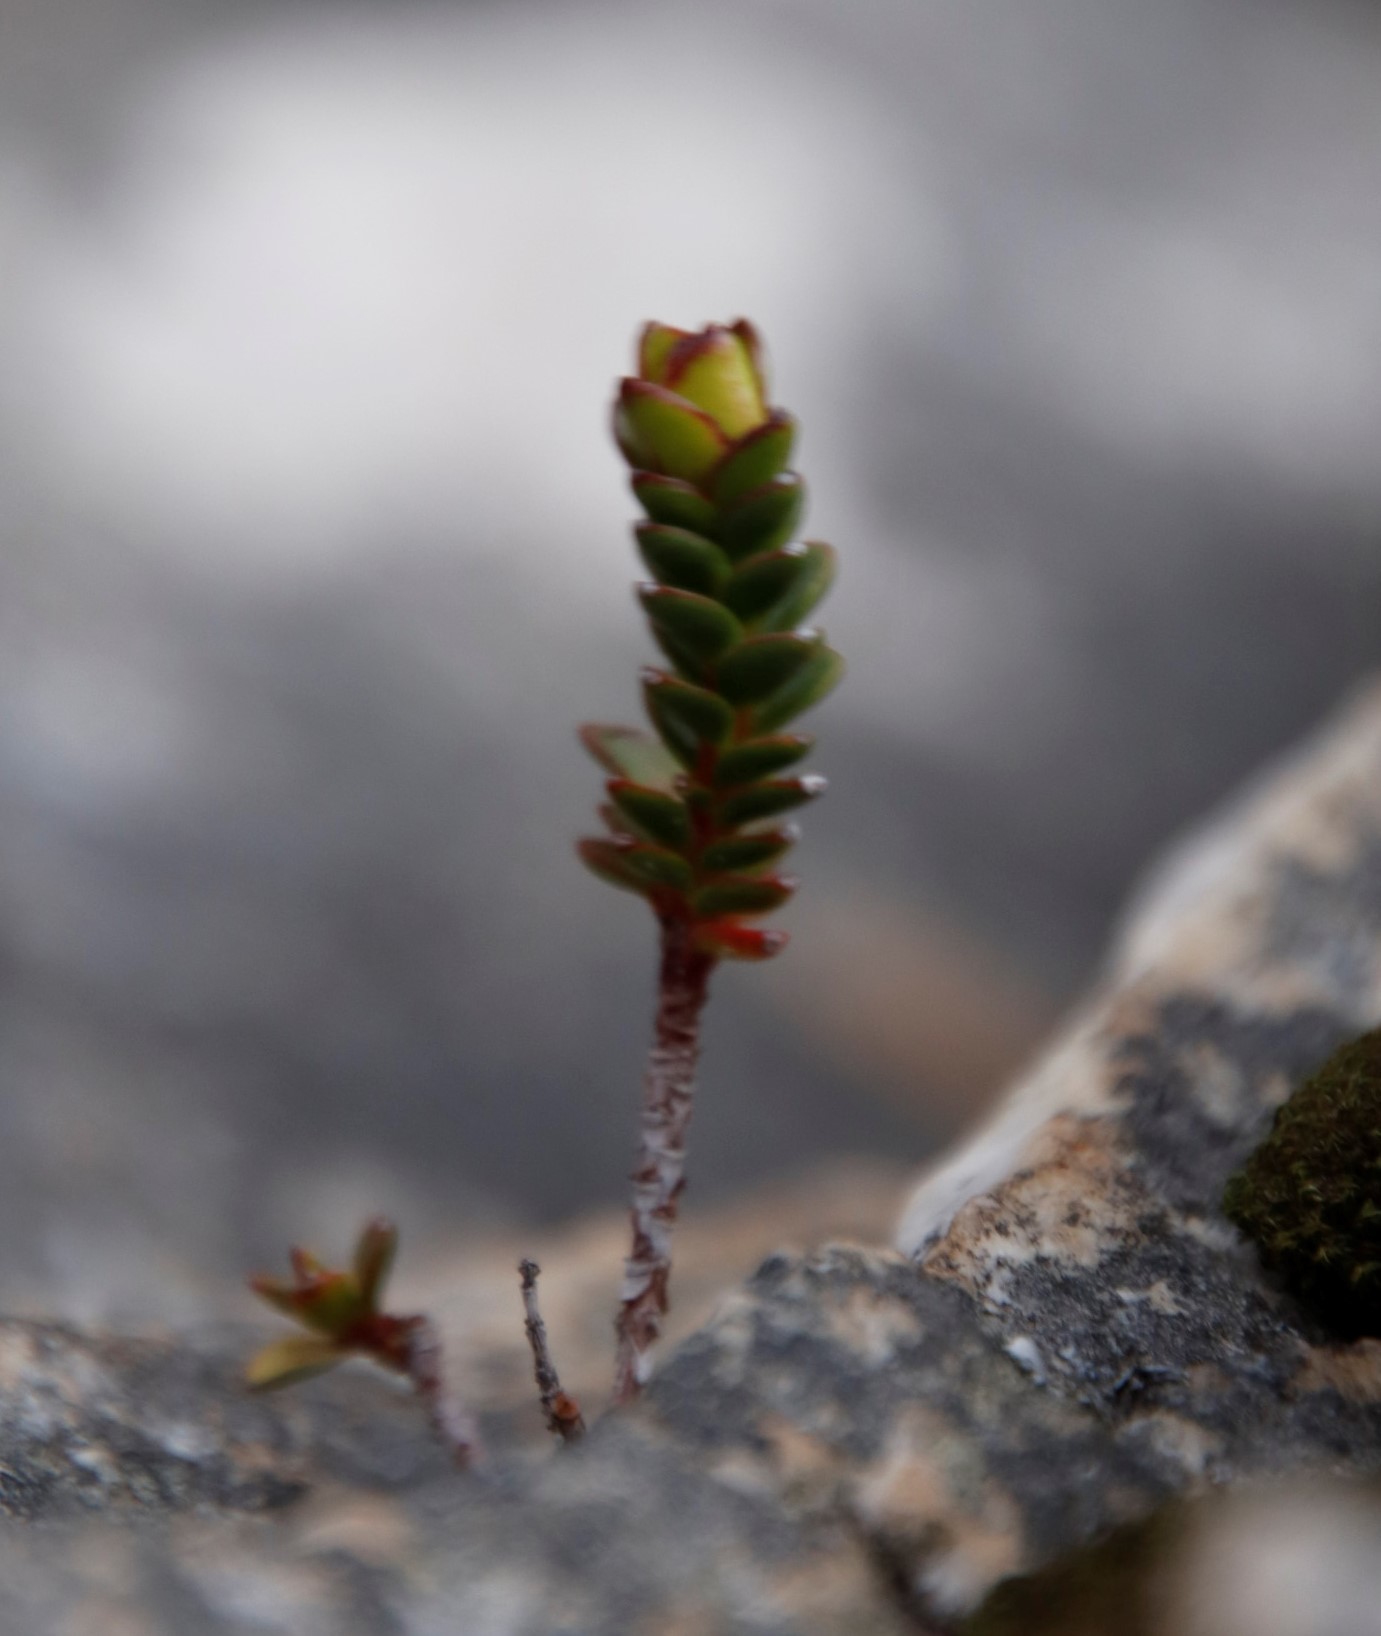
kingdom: Plantae
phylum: Tracheophyta
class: Magnoliopsida
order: Myrtales
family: Penaeaceae
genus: Sonderothamnus
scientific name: Sonderothamnus petraeus
